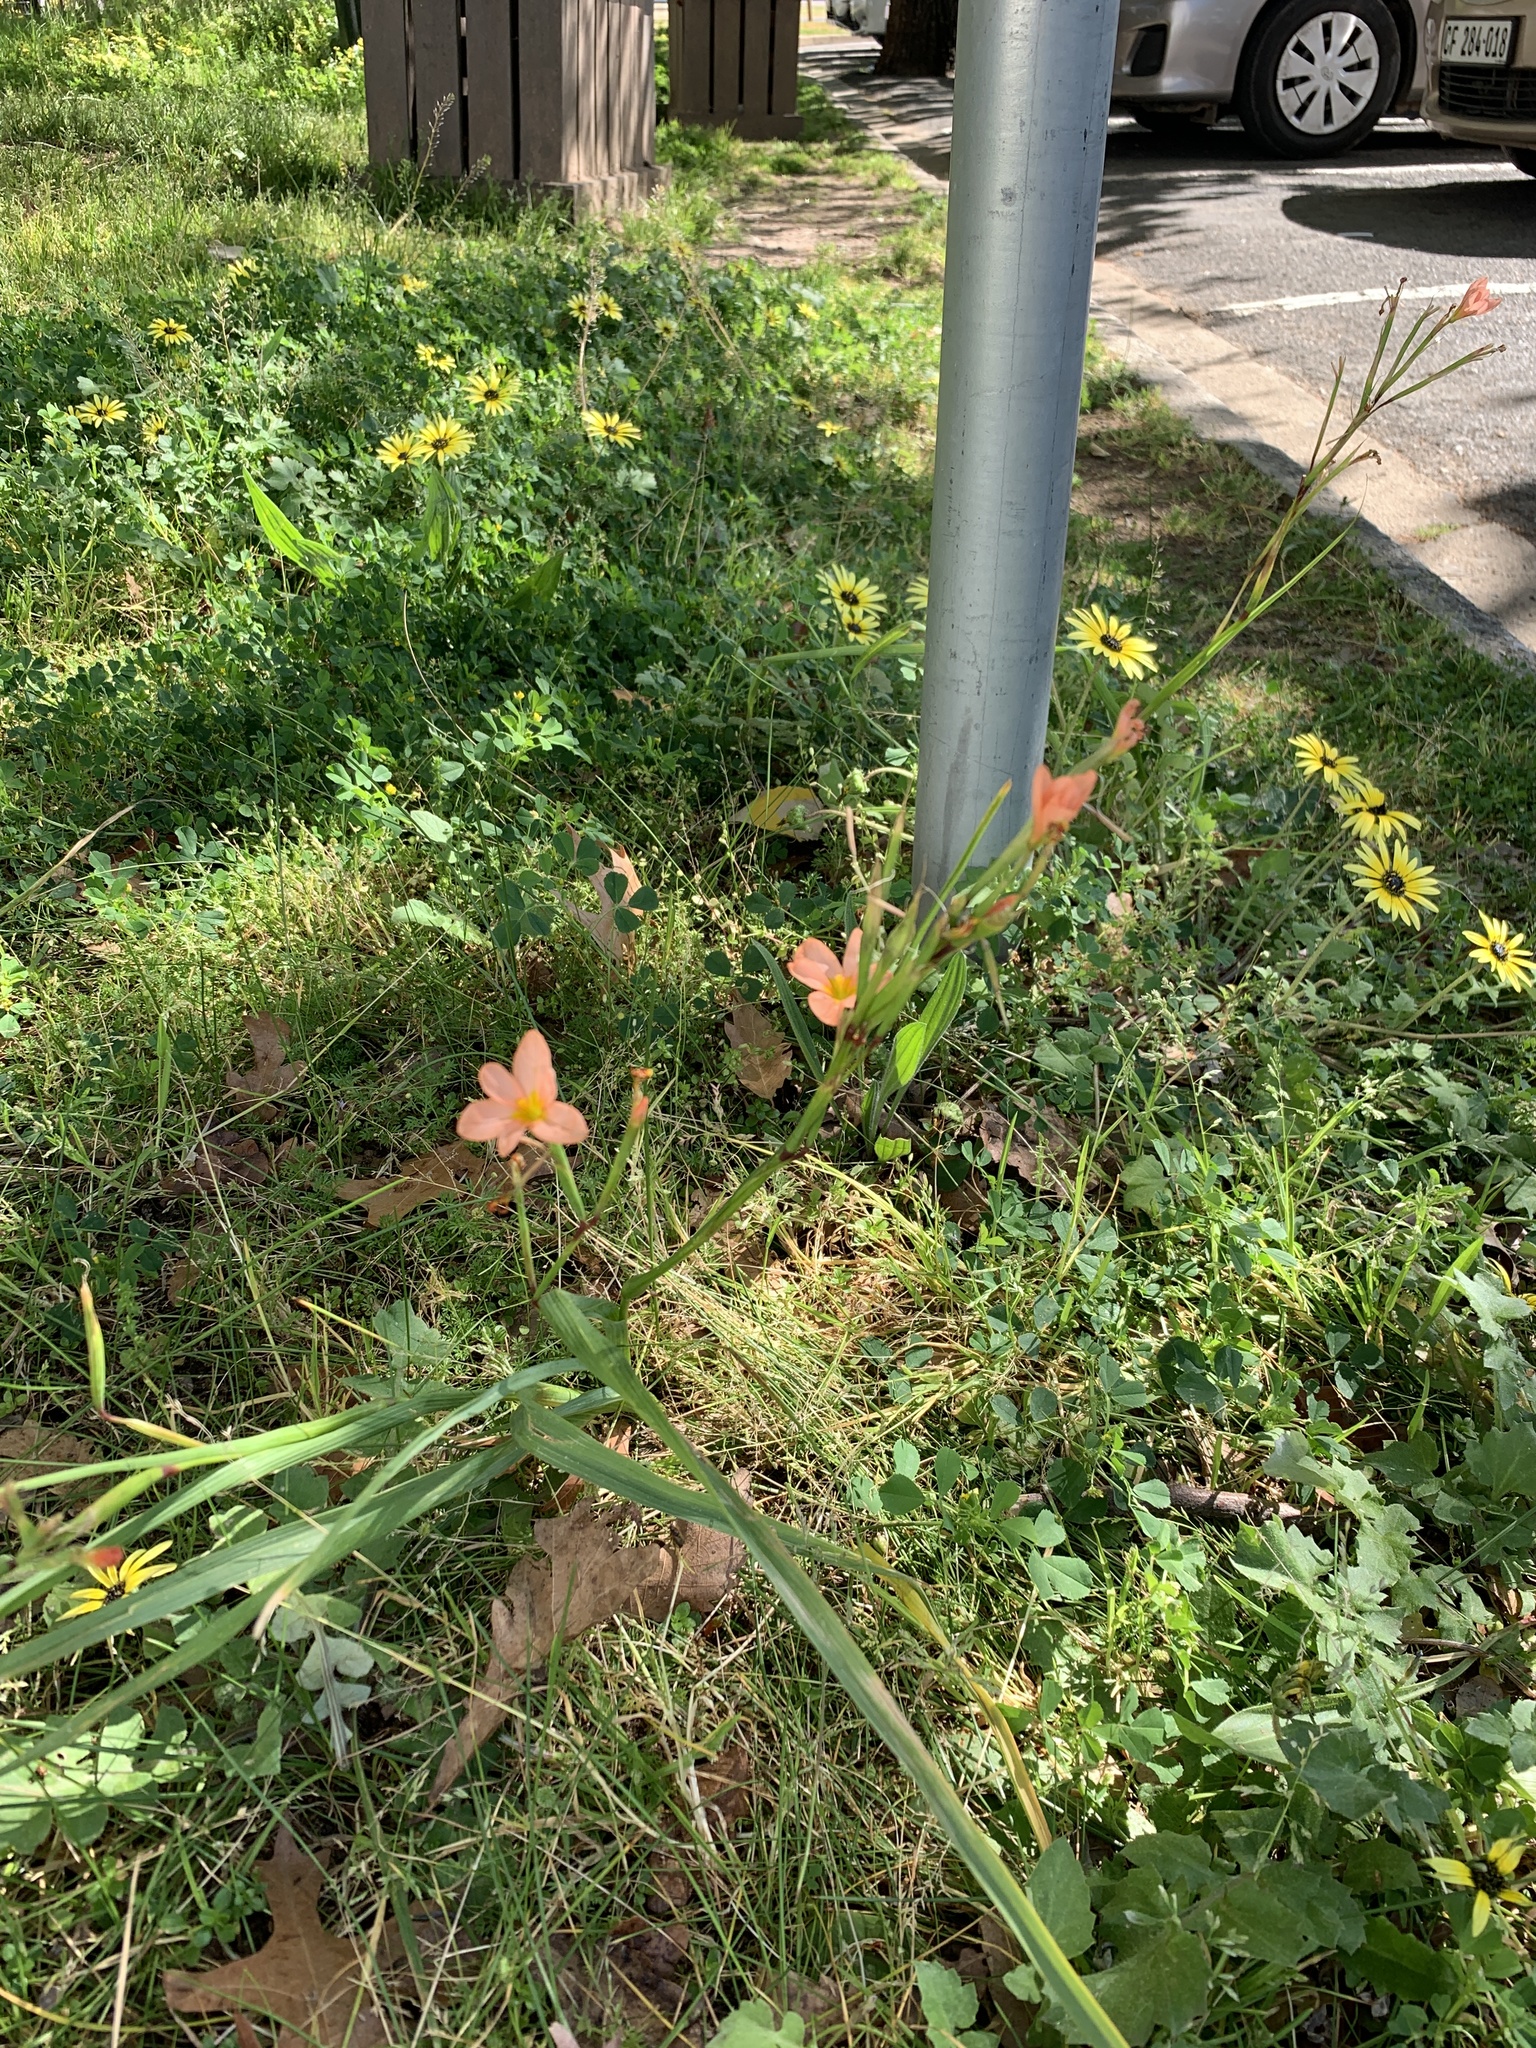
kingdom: Plantae
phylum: Tracheophyta
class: Liliopsida
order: Asparagales
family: Iridaceae
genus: Moraea
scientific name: Moraea miniata
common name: Two-leaf cape-tulip
